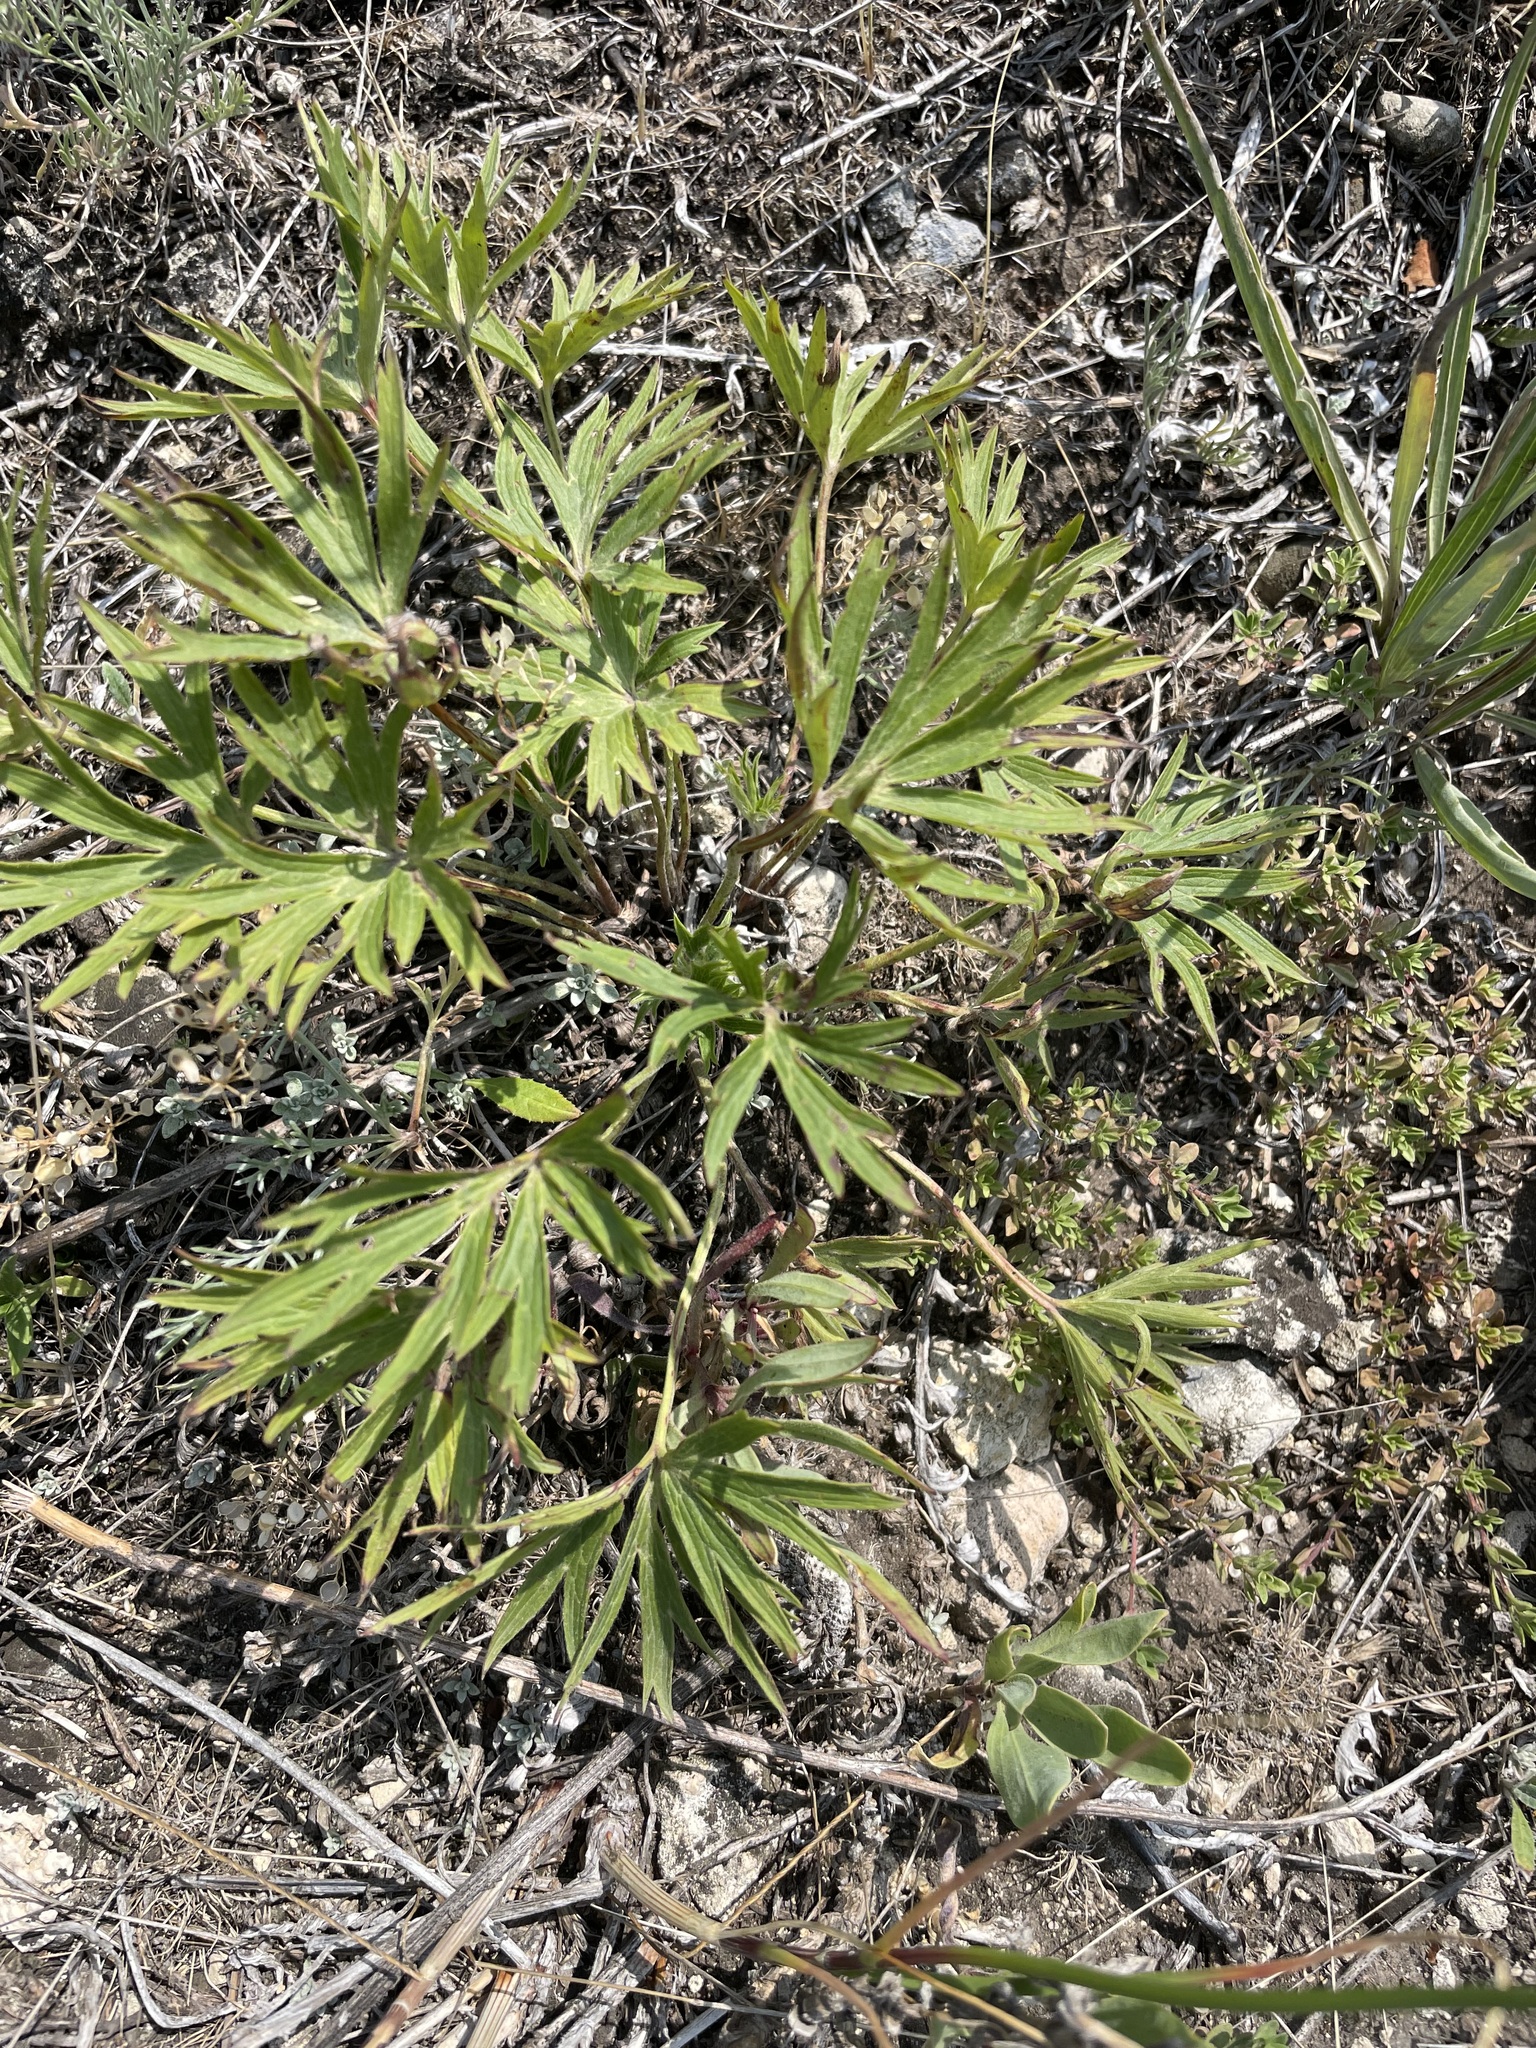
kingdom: Plantae
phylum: Tracheophyta
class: Magnoliopsida
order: Ranunculales
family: Ranunculaceae
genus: Pulsatilla
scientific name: Pulsatilla patens
